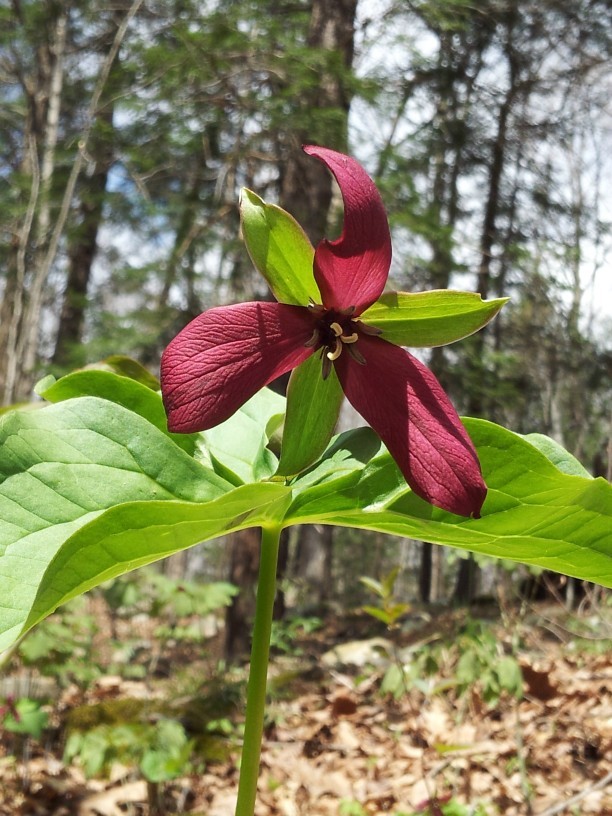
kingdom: Plantae
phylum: Tracheophyta
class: Liliopsida
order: Liliales
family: Melanthiaceae
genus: Trillium
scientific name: Trillium erectum
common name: Purple trillium
